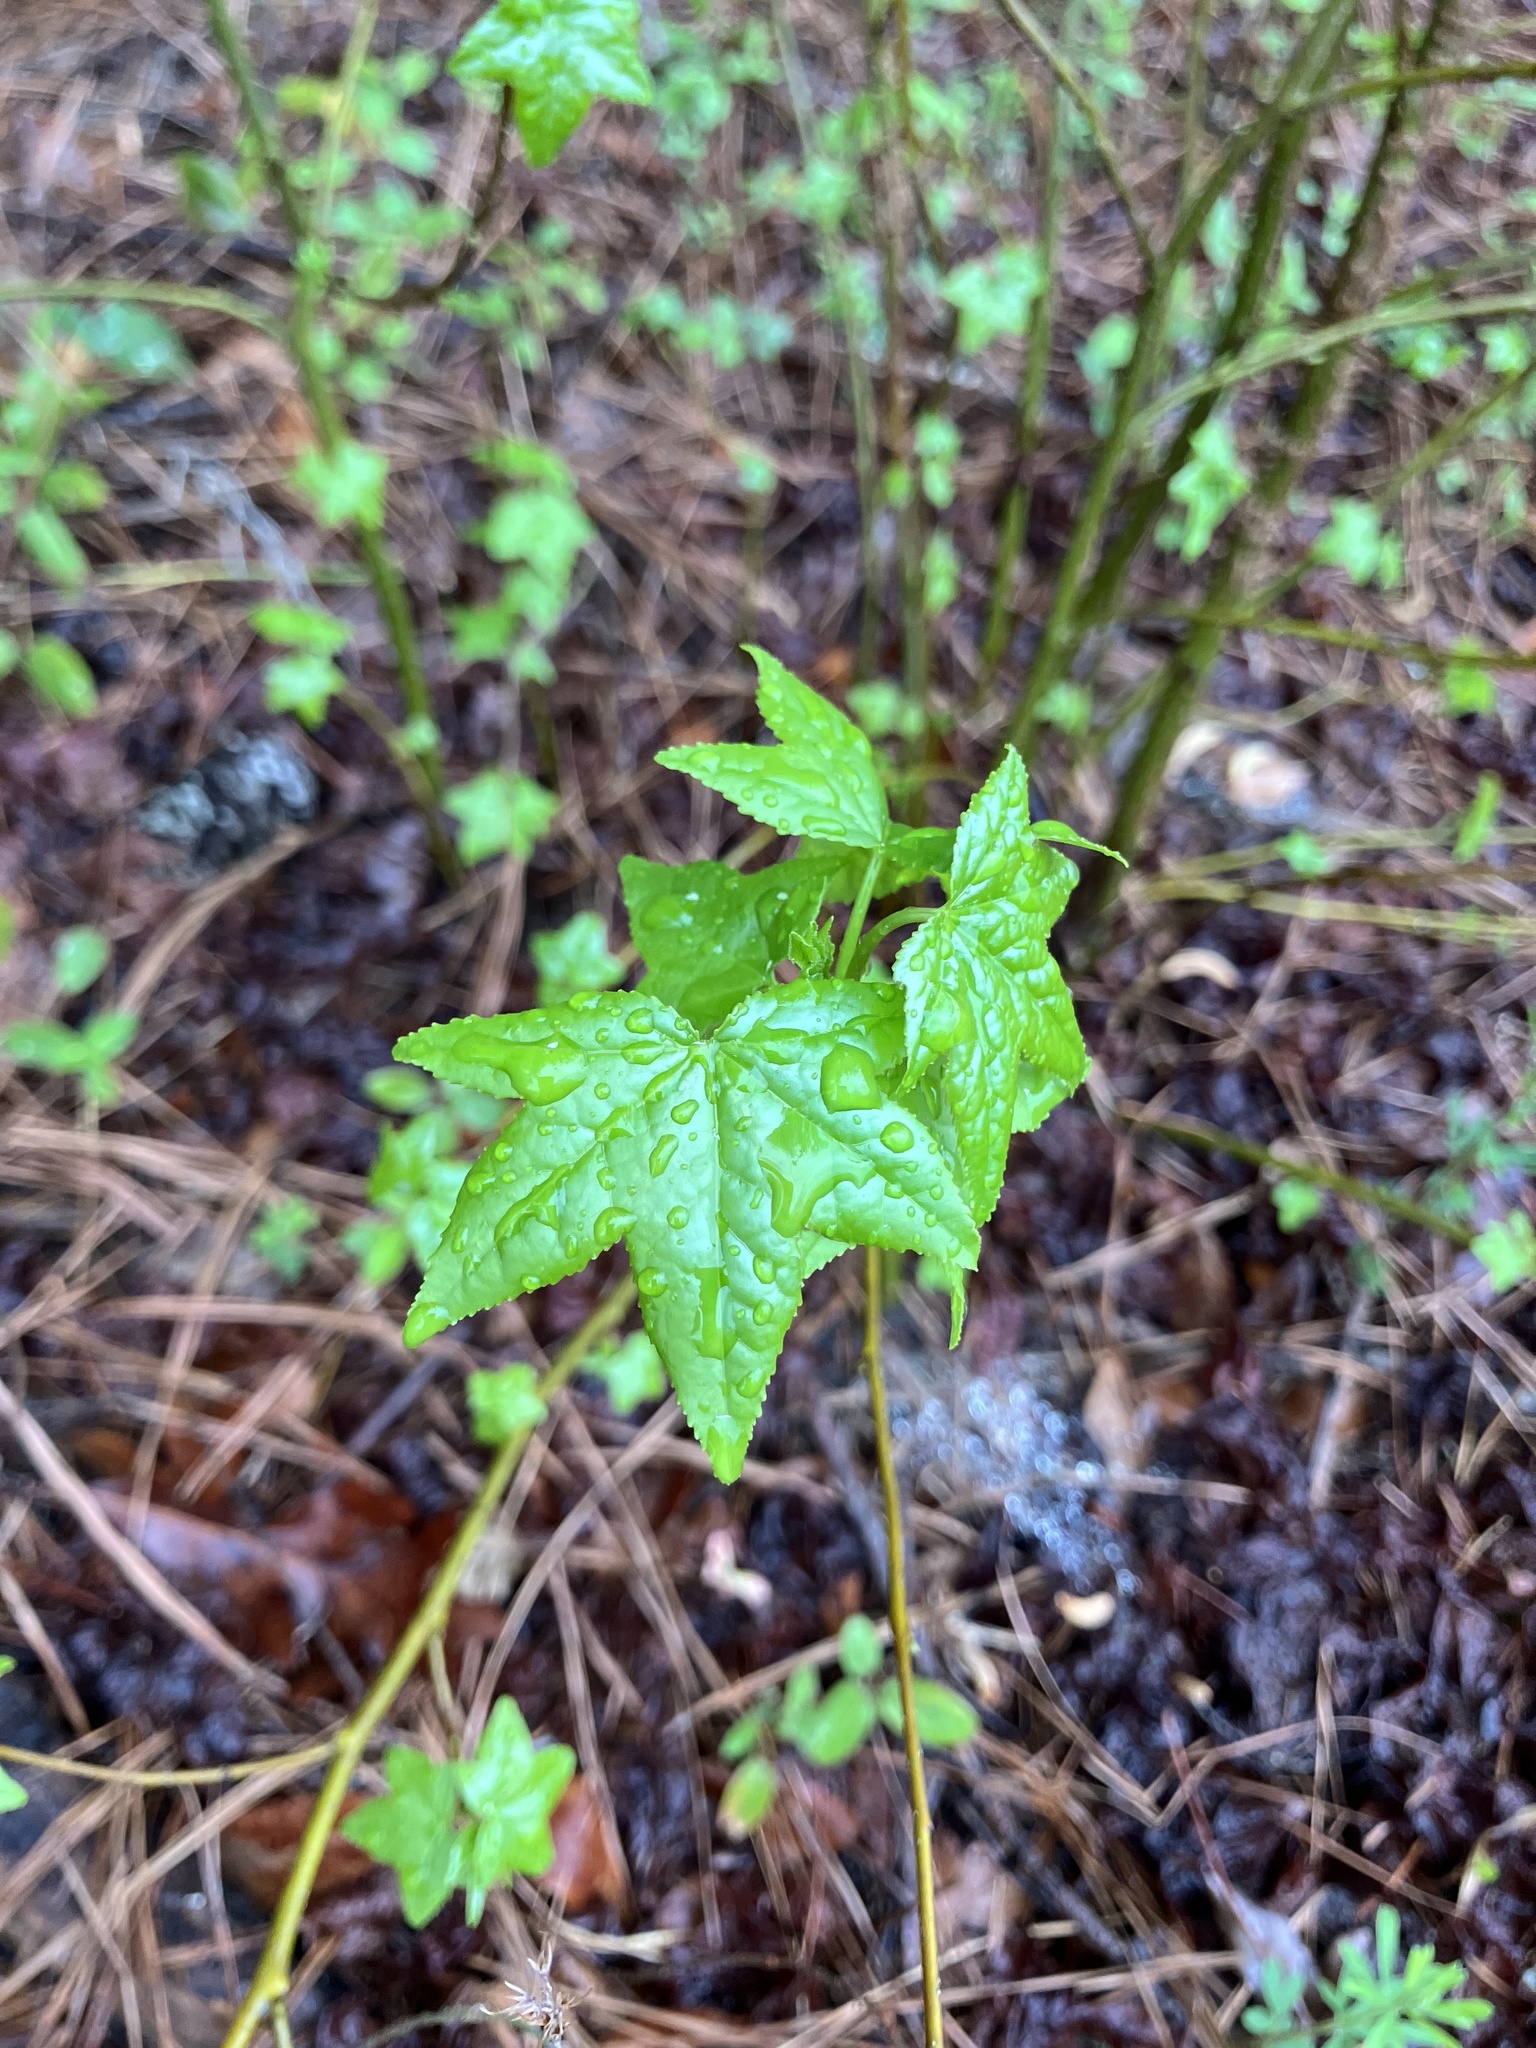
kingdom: Plantae
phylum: Tracheophyta
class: Magnoliopsida
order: Saxifragales
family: Altingiaceae
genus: Liquidambar
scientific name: Liquidambar styraciflua
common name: Sweet gum
